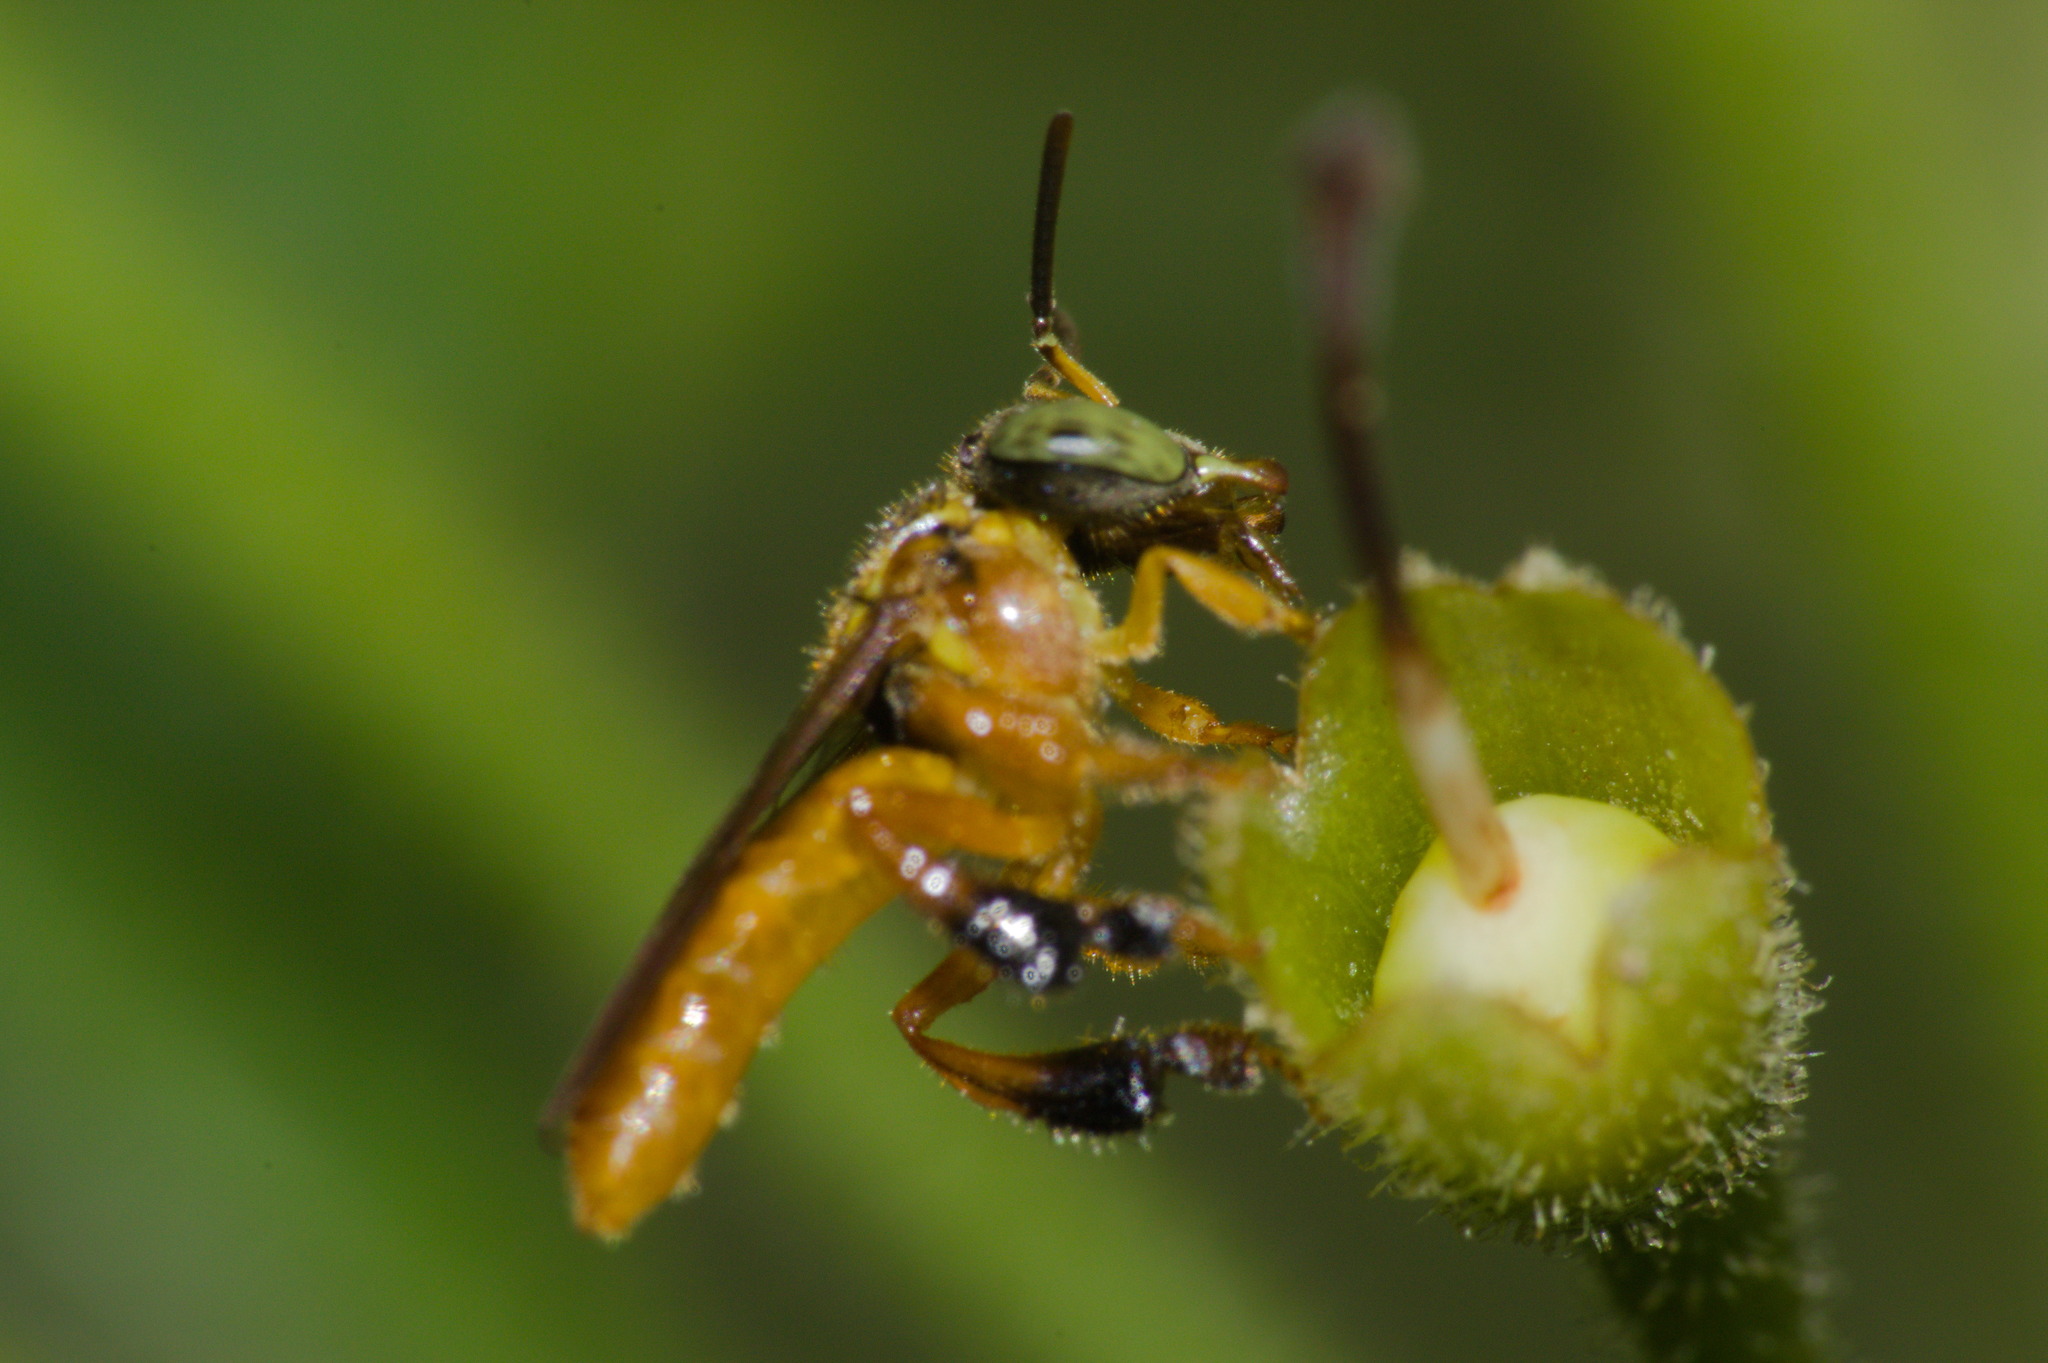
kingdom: Animalia
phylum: Arthropoda
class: Insecta
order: Hymenoptera
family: Apidae
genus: Tetragonisca
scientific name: Tetragonisca fiebrigi
